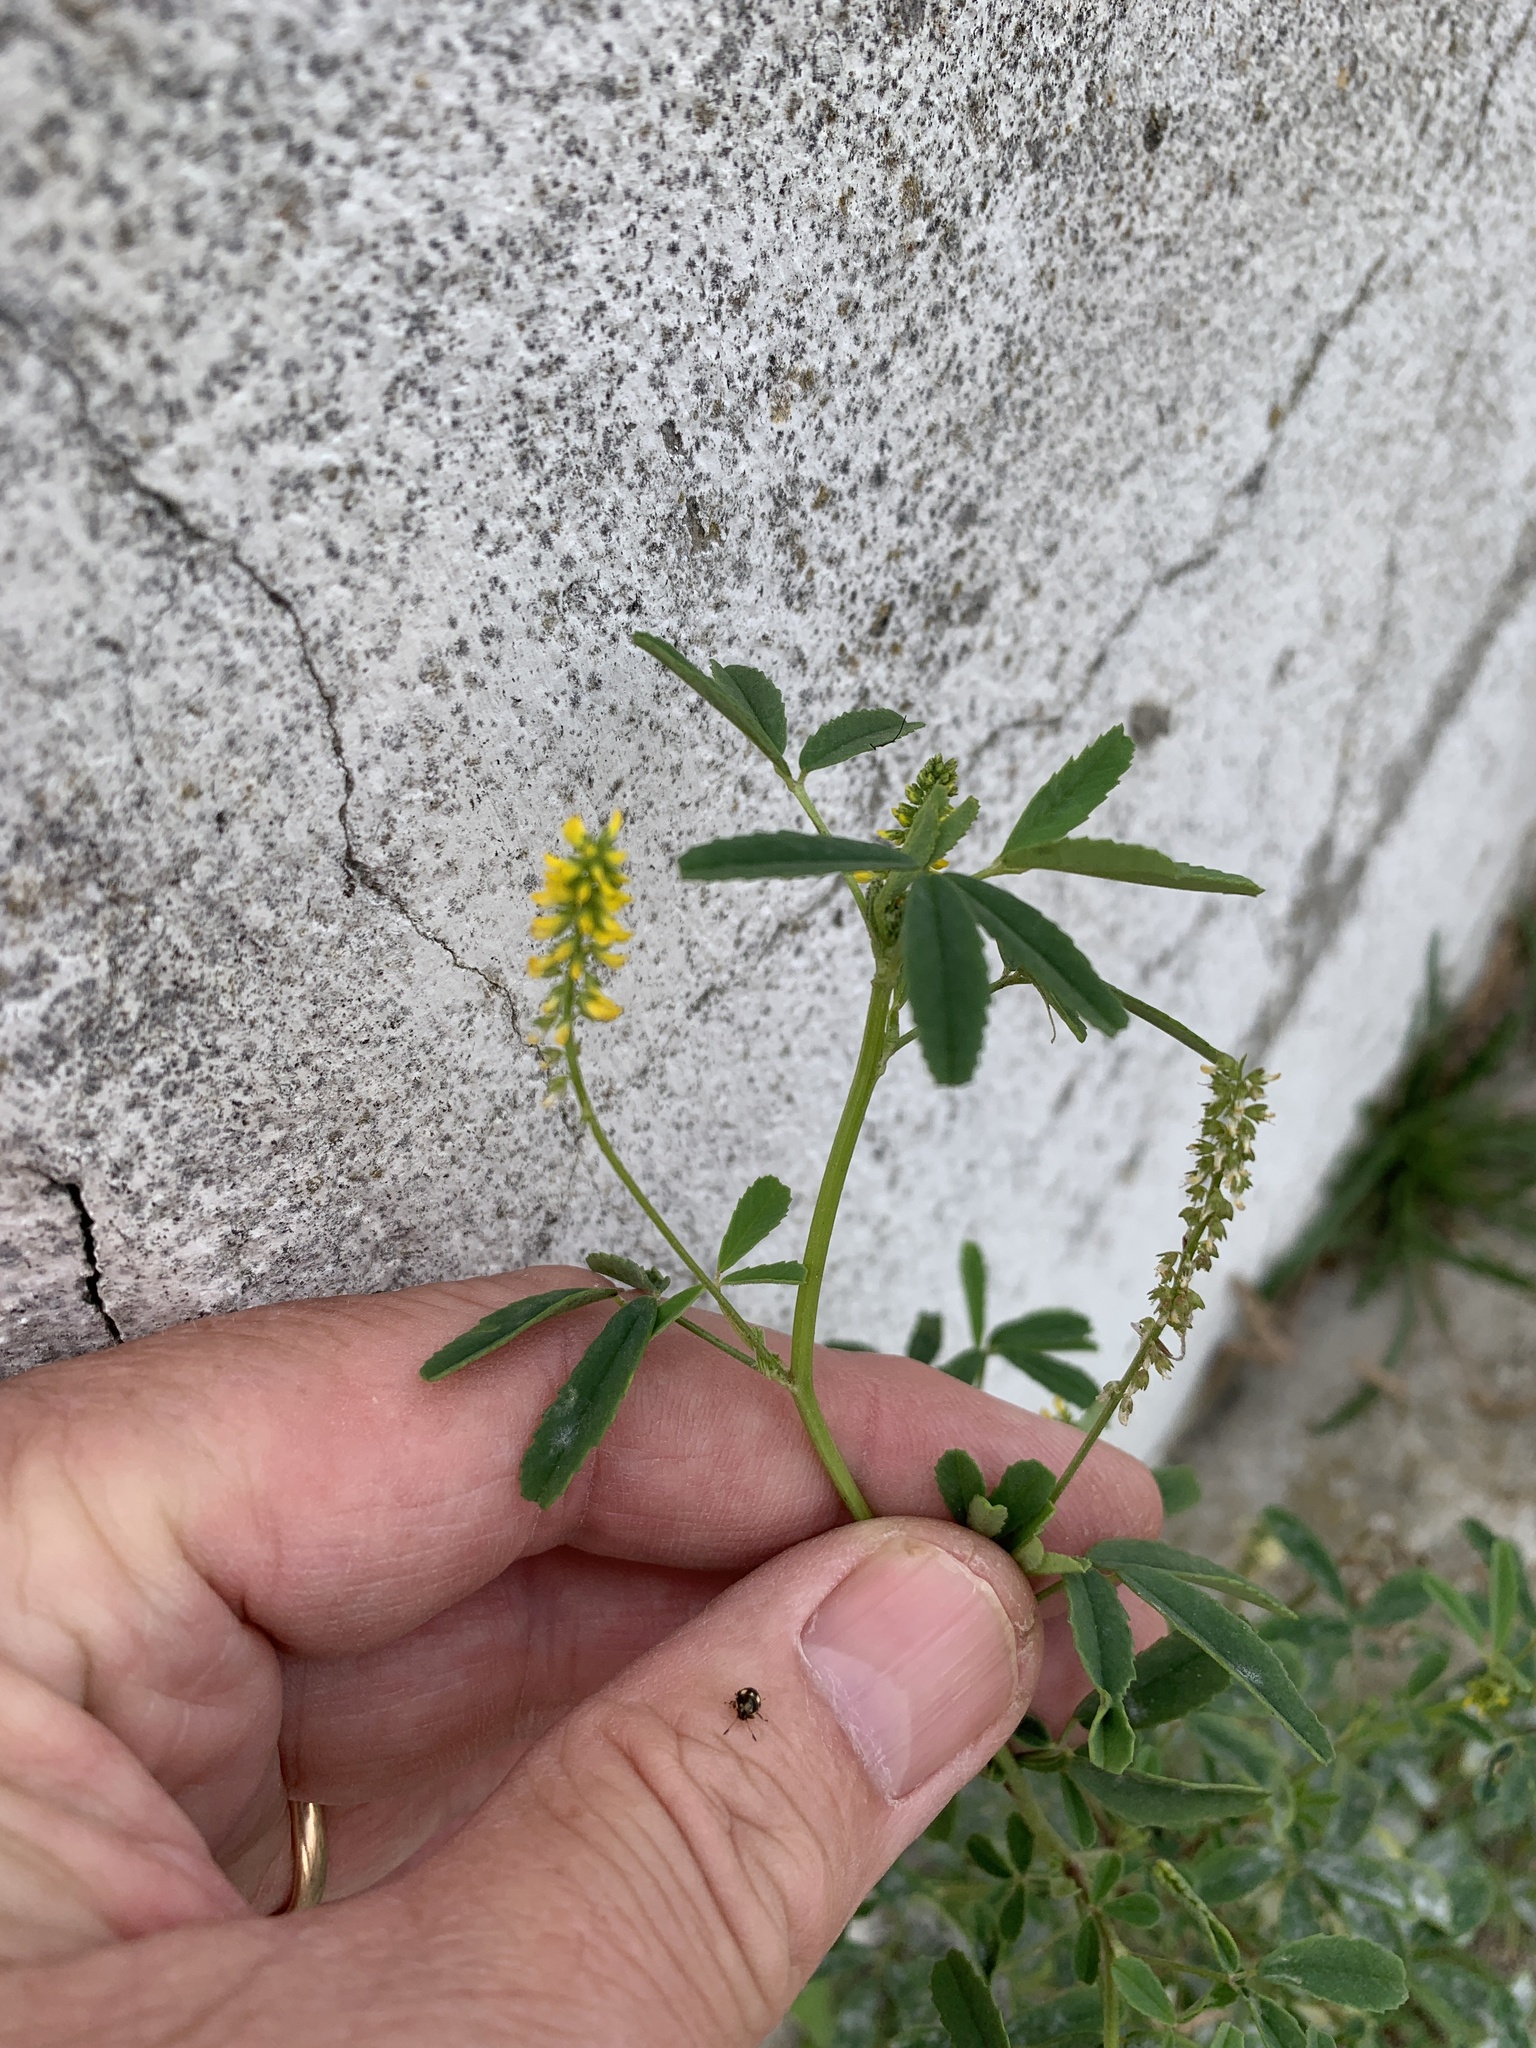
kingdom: Plantae
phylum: Tracheophyta
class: Magnoliopsida
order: Fabales
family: Fabaceae
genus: Melilotus
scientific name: Melilotus indicus
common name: Small melilot
